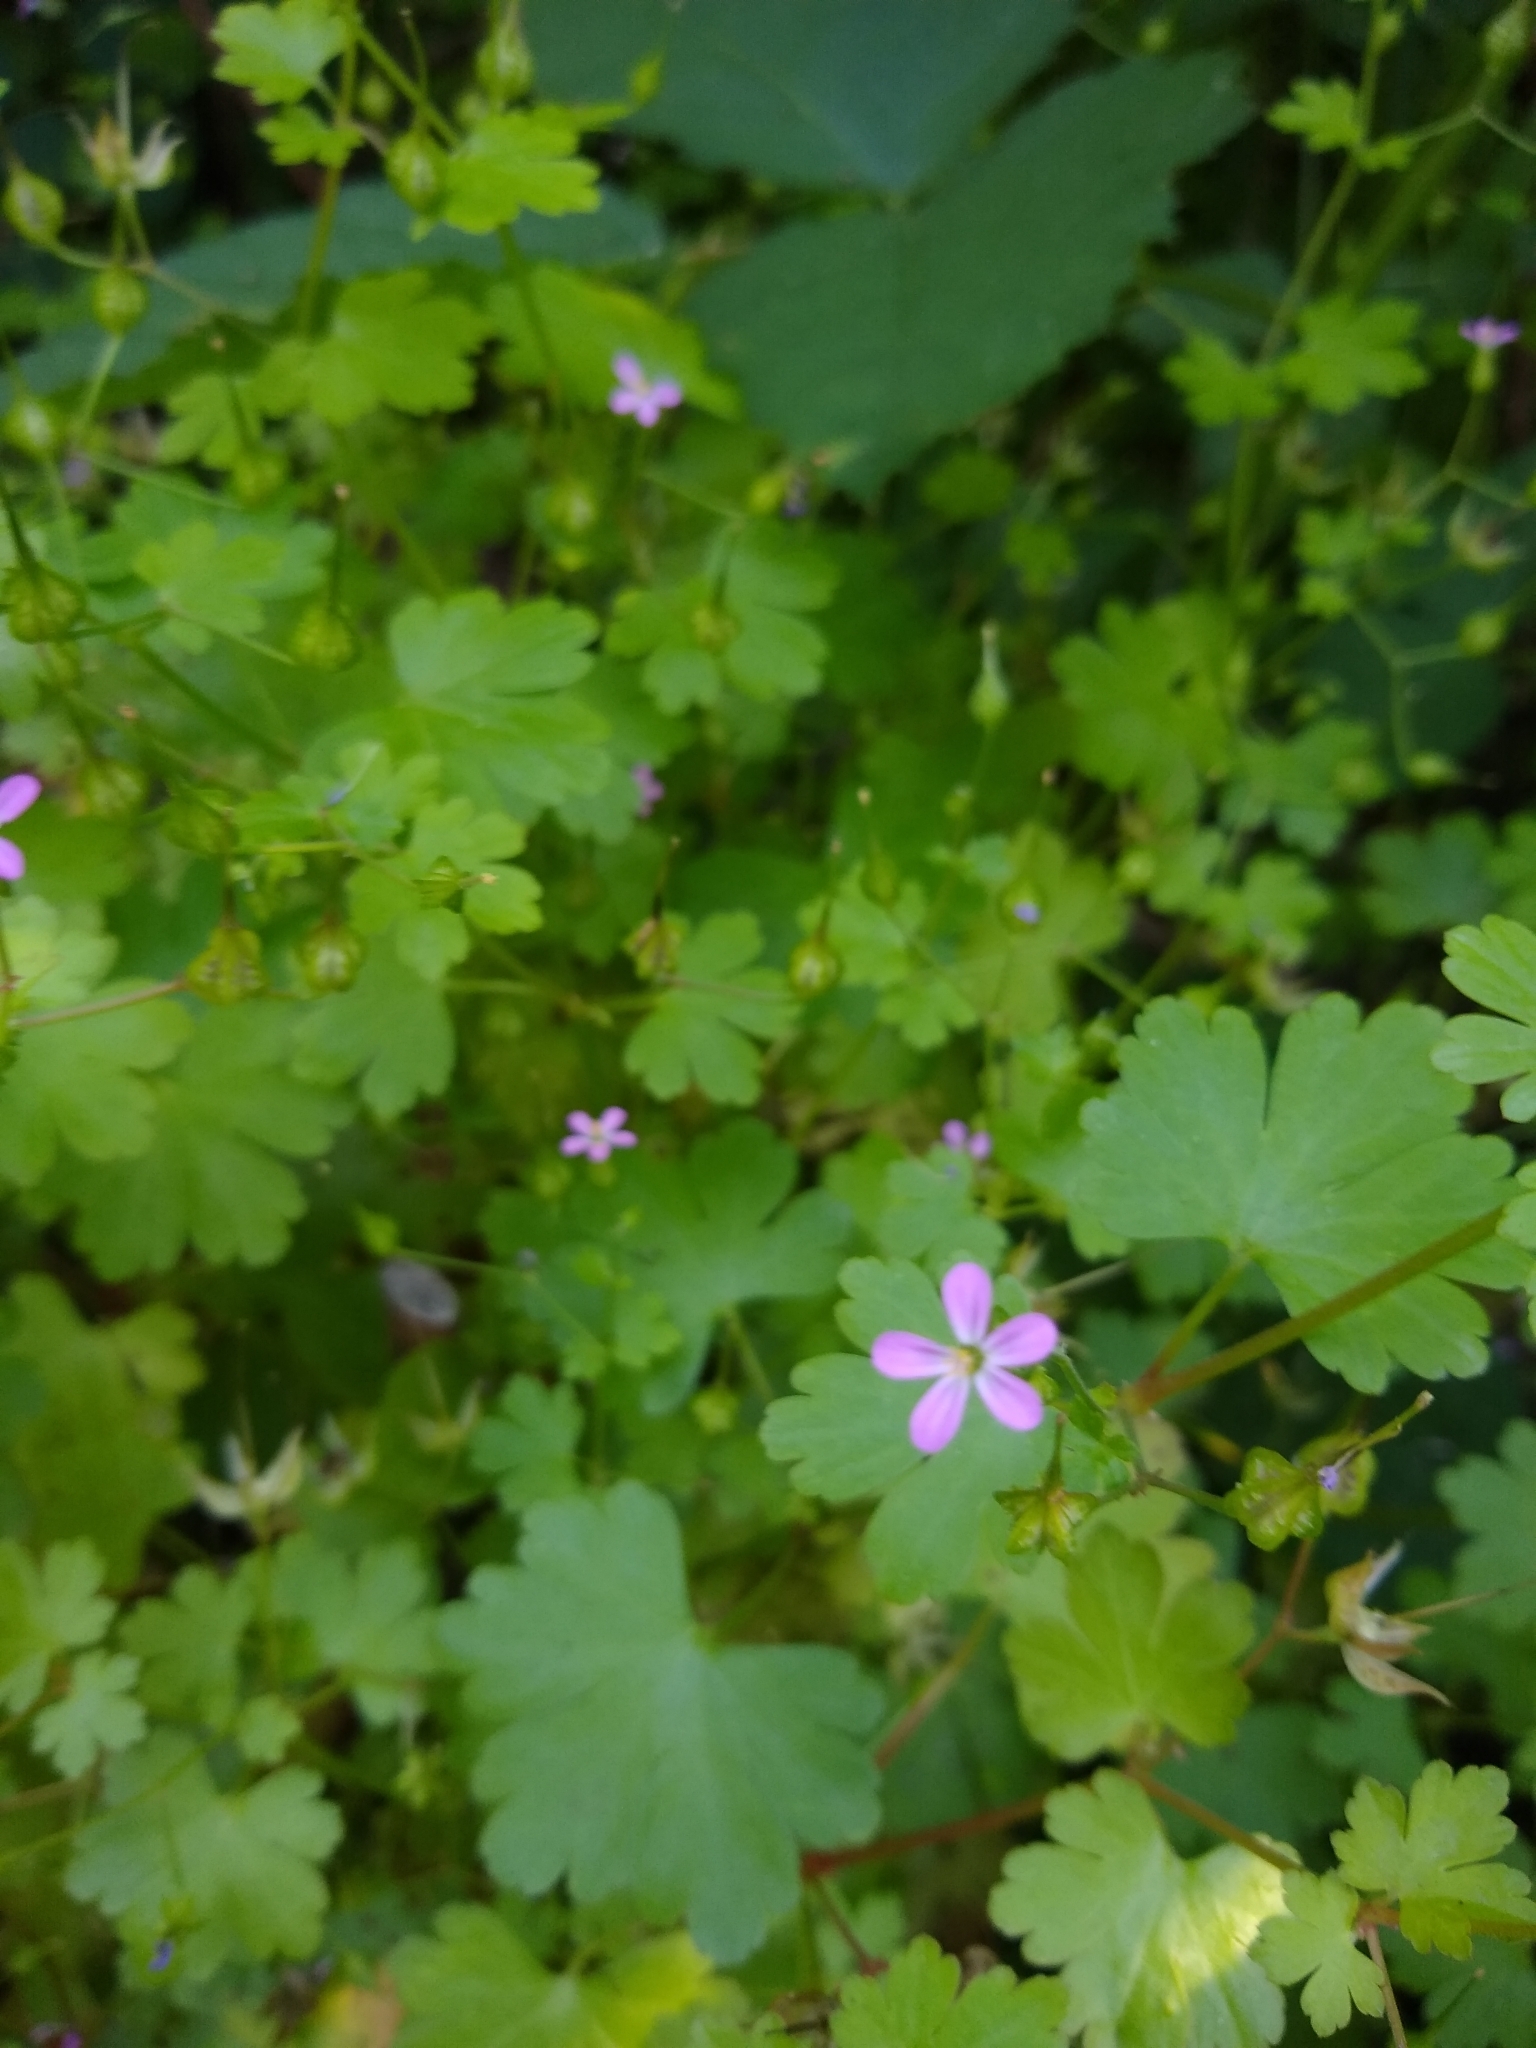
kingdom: Plantae
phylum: Tracheophyta
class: Magnoliopsida
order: Geraniales
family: Geraniaceae
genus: Geranium
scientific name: Geranium lucidum
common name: Shining crane's-bill
